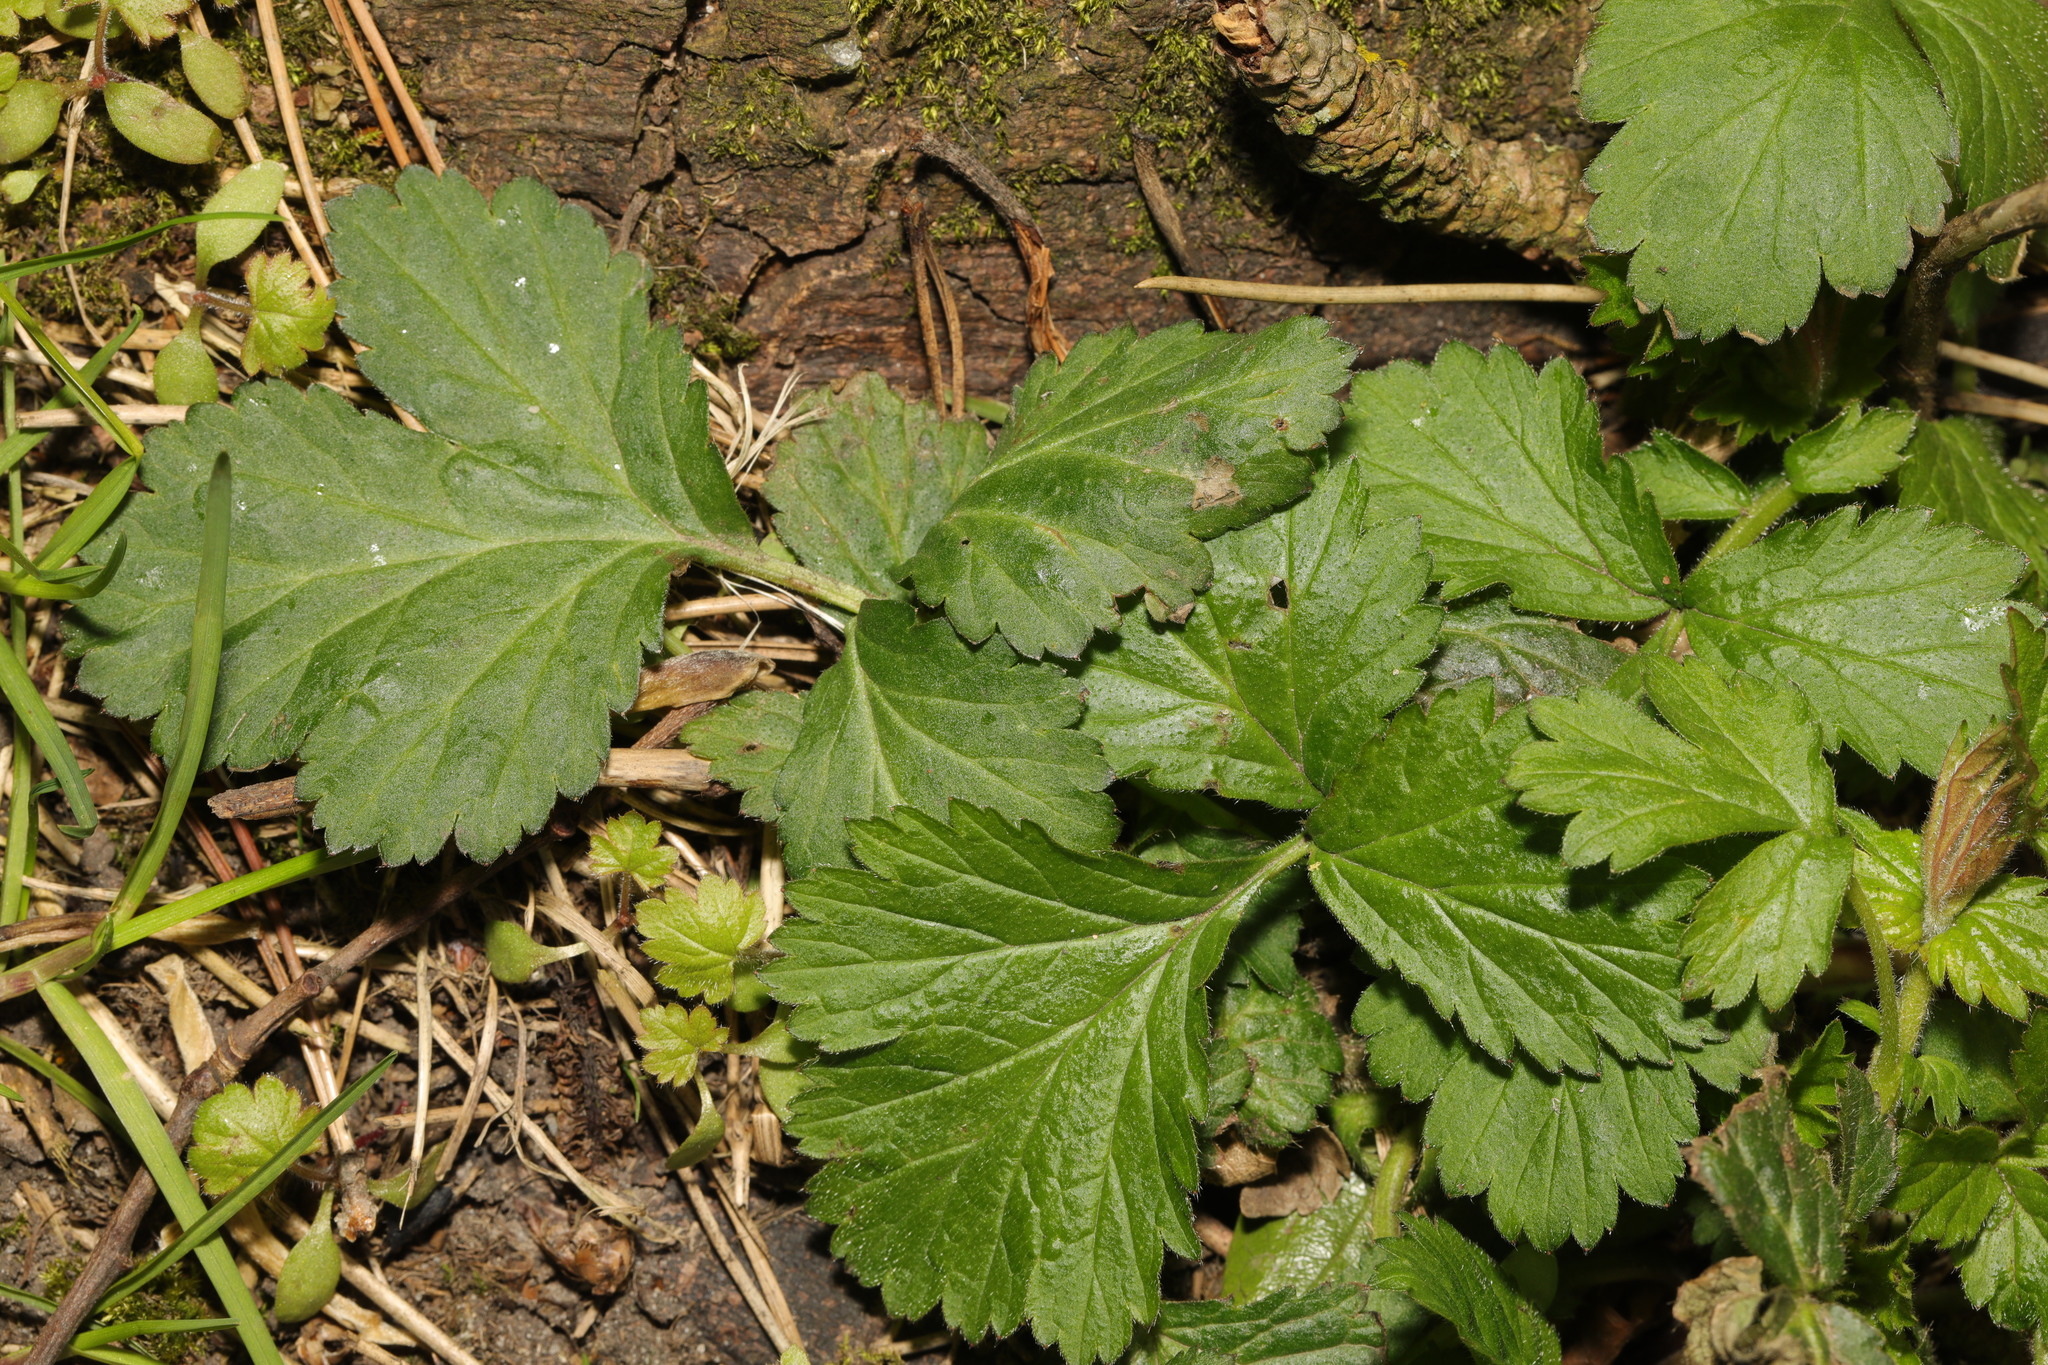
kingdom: Plantae
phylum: Tracheophyta
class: Magnoliopsida
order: Rosales
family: Rosaceae
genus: Geum
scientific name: Geum urbanum
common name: Wood avens
